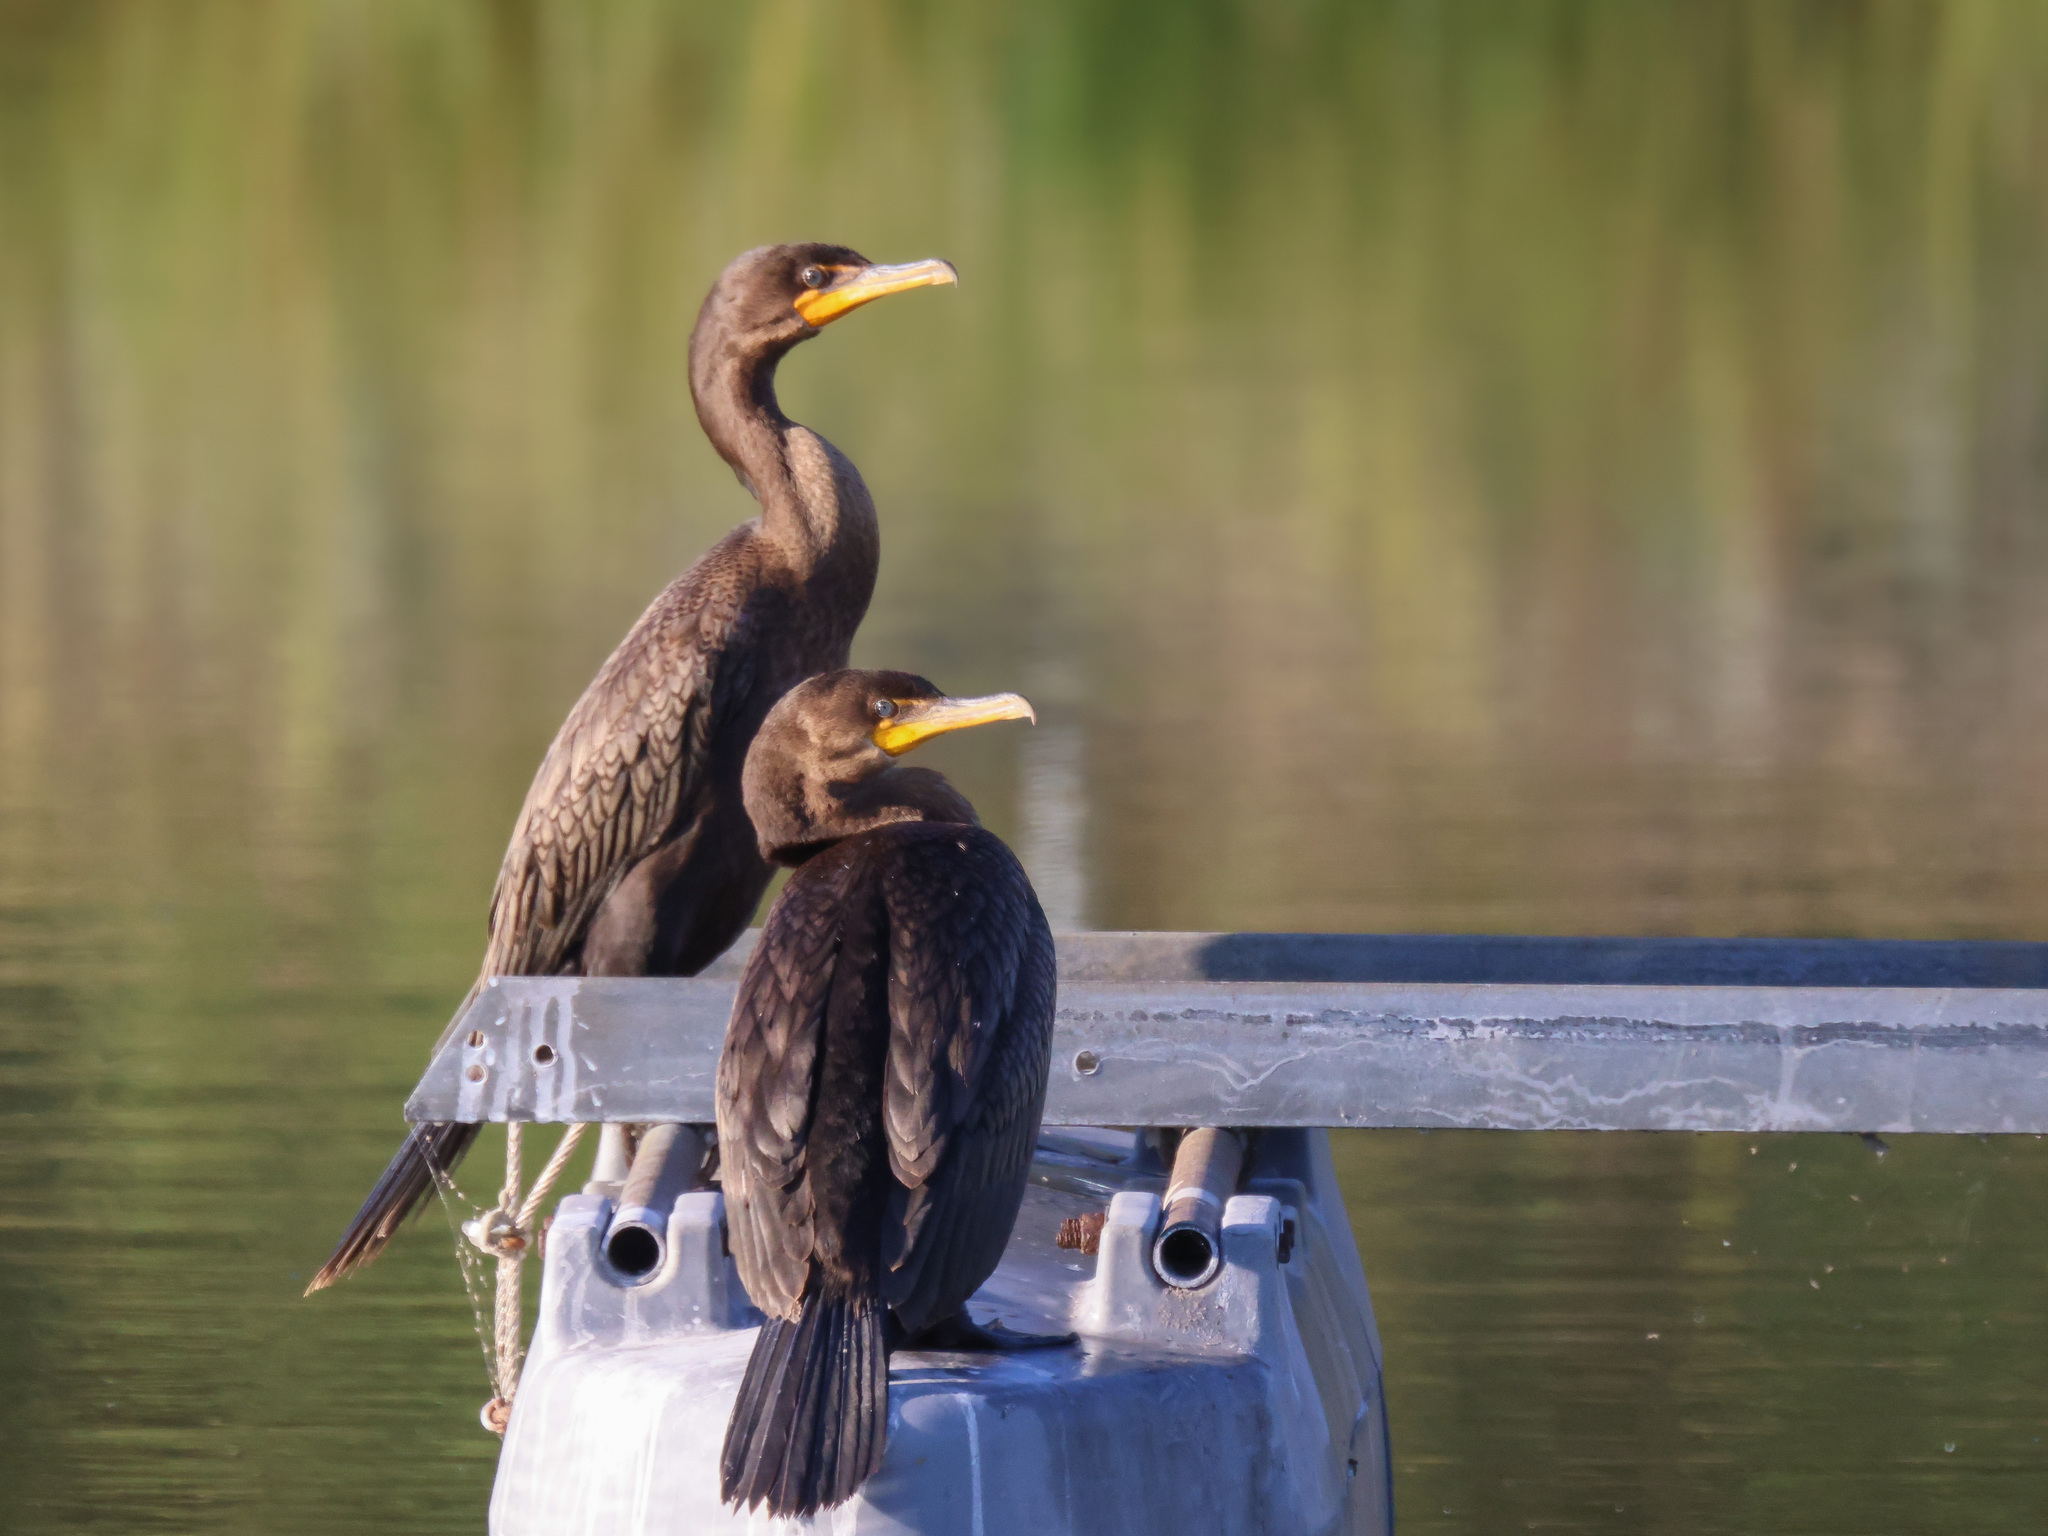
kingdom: Animalia
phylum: Chordata
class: Aves
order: Suliformes
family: Phalacrocoracidae
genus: Phalacrocorax
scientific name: Phalacrocorax auritus
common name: Double-crested cormorant
